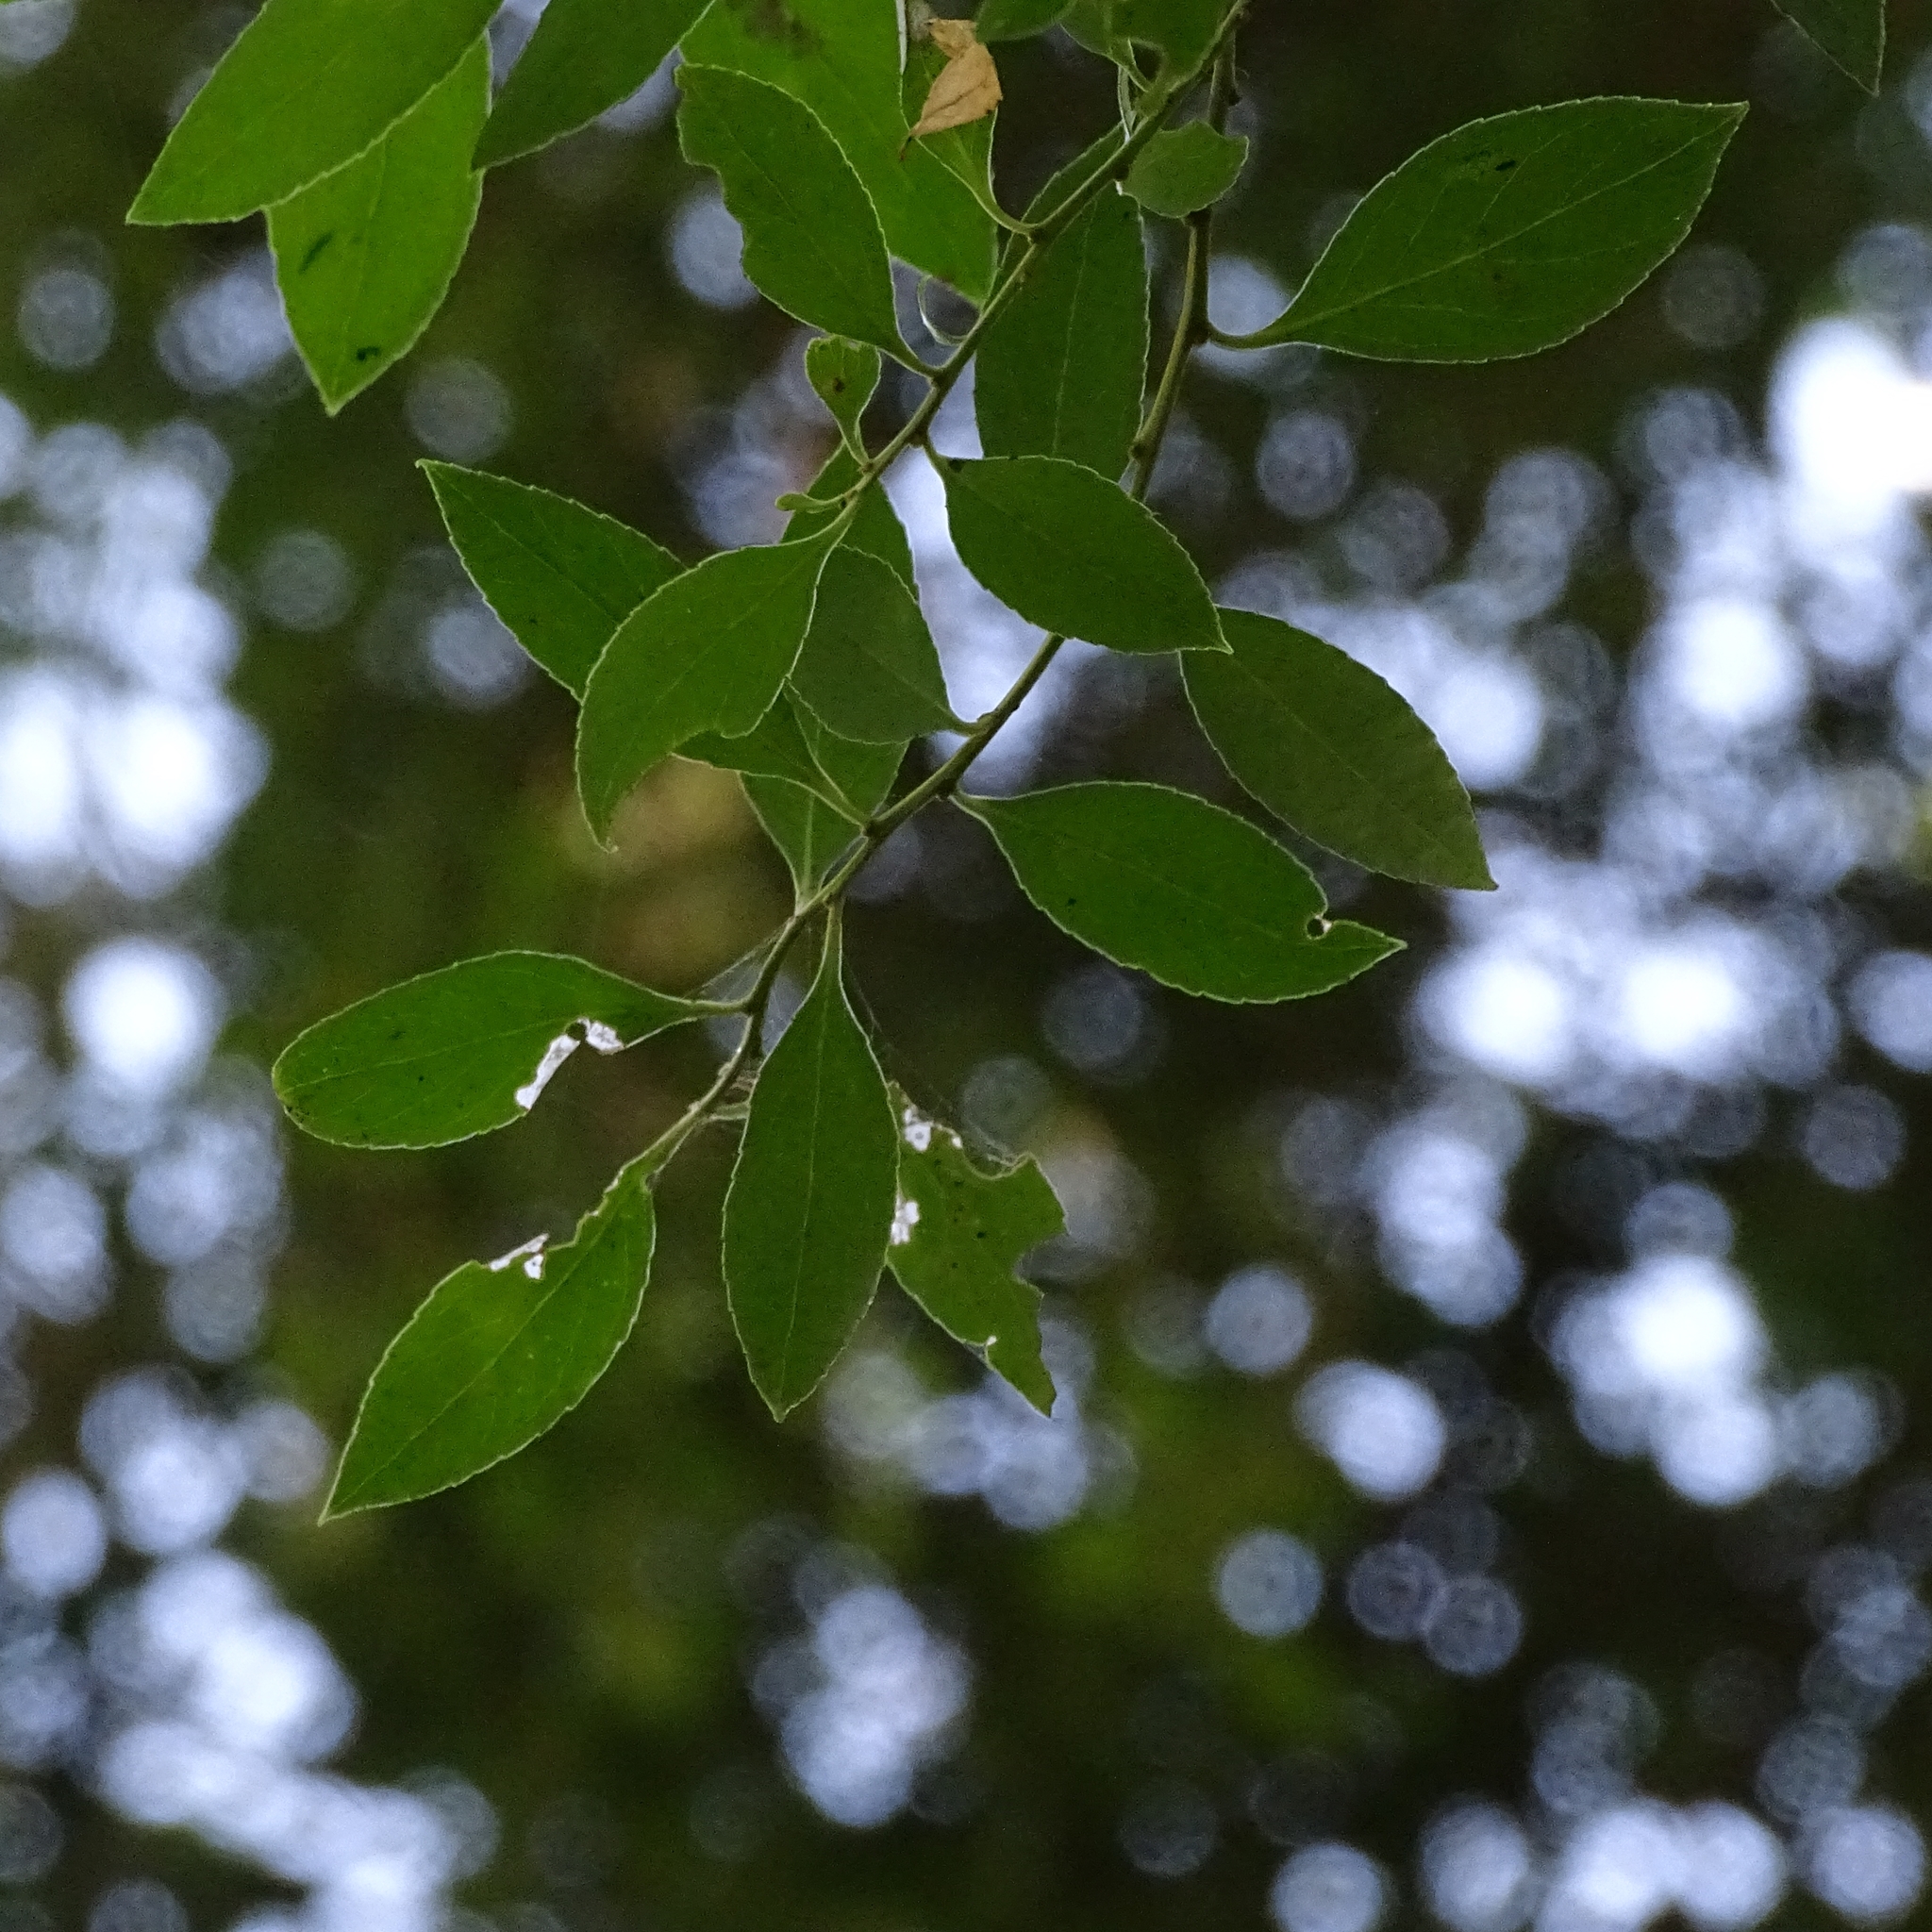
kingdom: Plantae
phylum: Tracheophyta
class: Magnoliopsida
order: Celastrales
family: Celastraceae
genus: Maytenus
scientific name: Maytenus boaria
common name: Mayten
